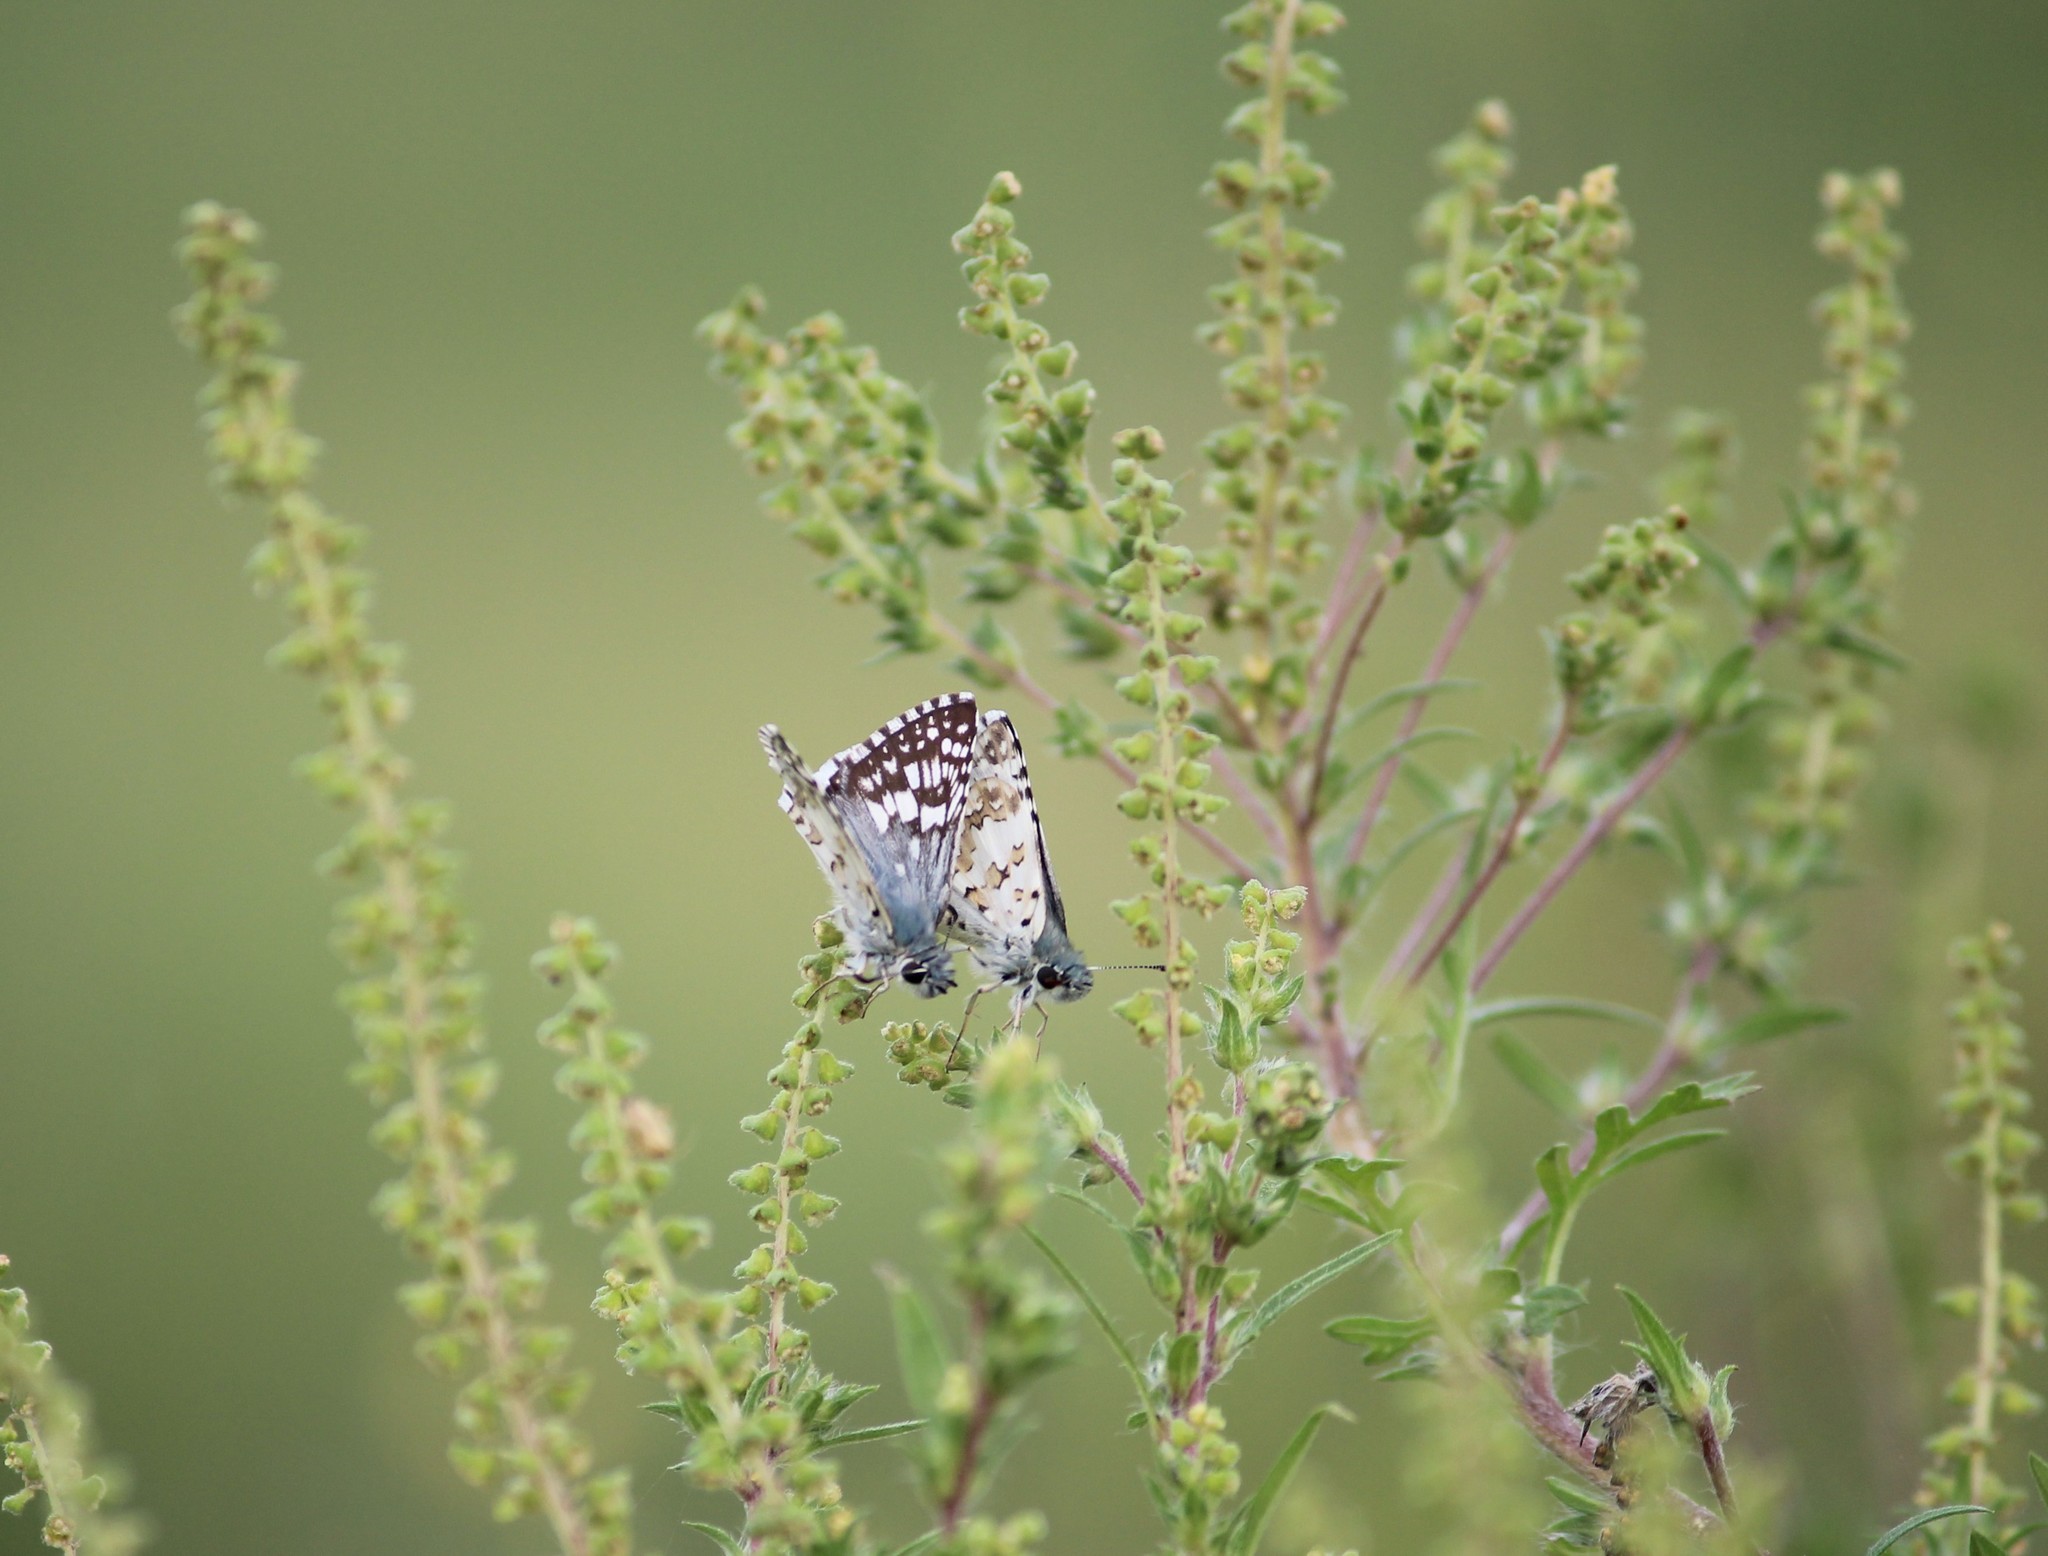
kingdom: Animalia
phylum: Arthropoda
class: Insecta
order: Lepidoptera
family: Hesperiidae
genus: Burnsius
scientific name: Burnsius communis
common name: Common checkered-skipper
